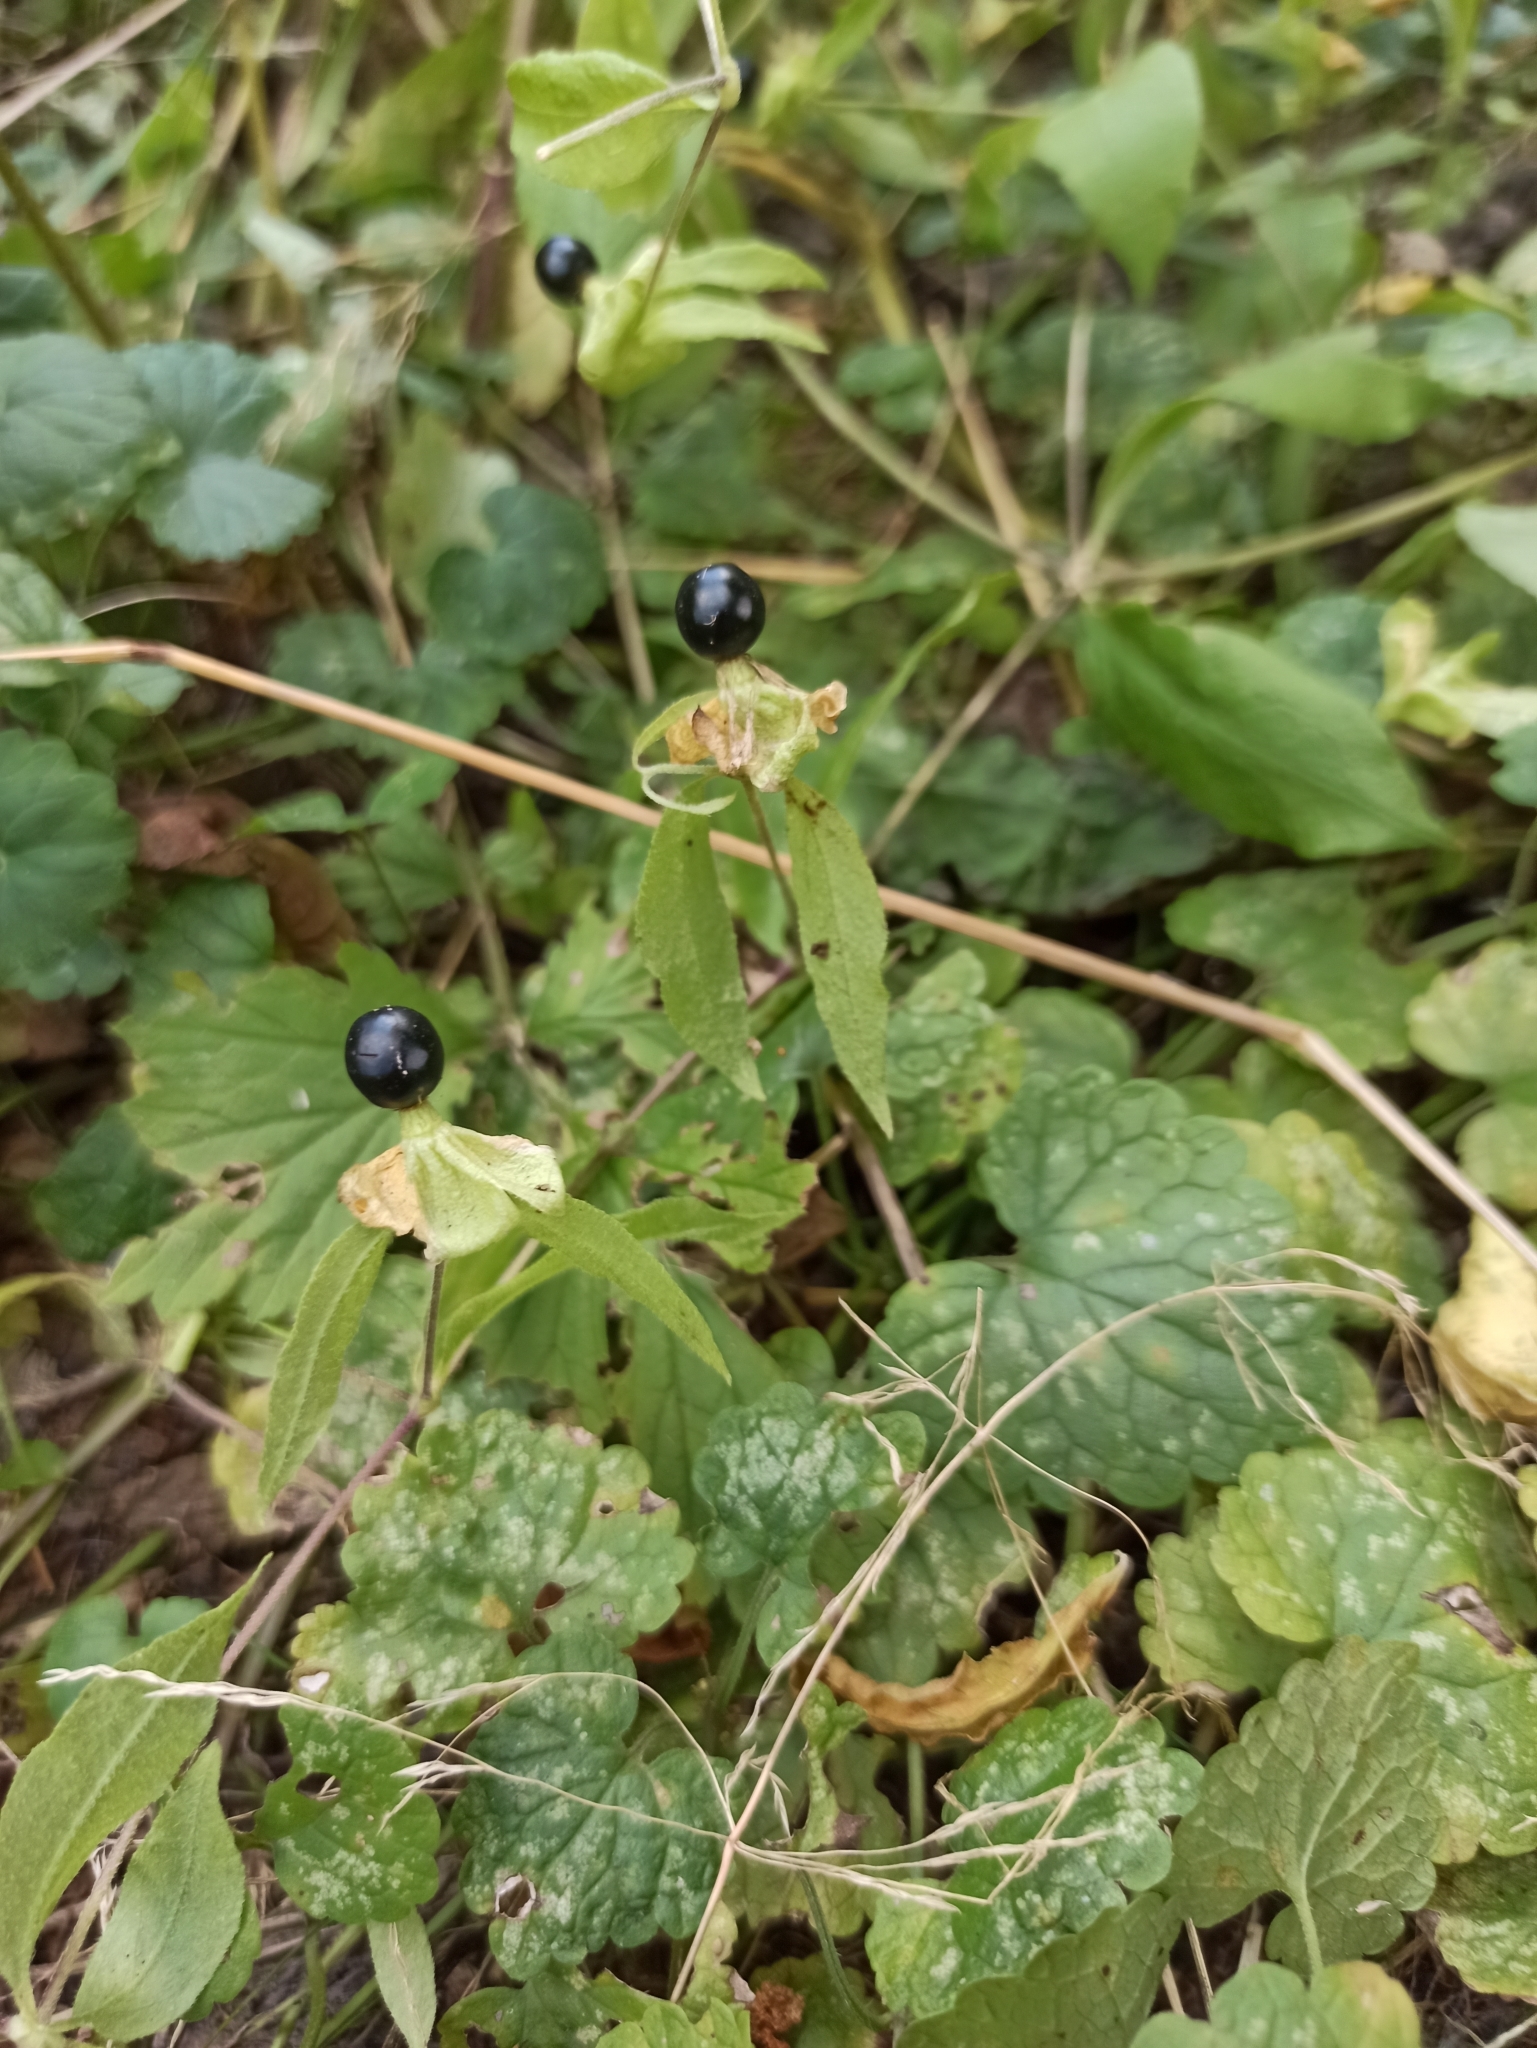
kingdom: Plantae
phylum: Tracheophyta
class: Magnoliopsida
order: Caryophyllales
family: Caryophyllaceae
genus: Silene
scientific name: Silene baccifera
